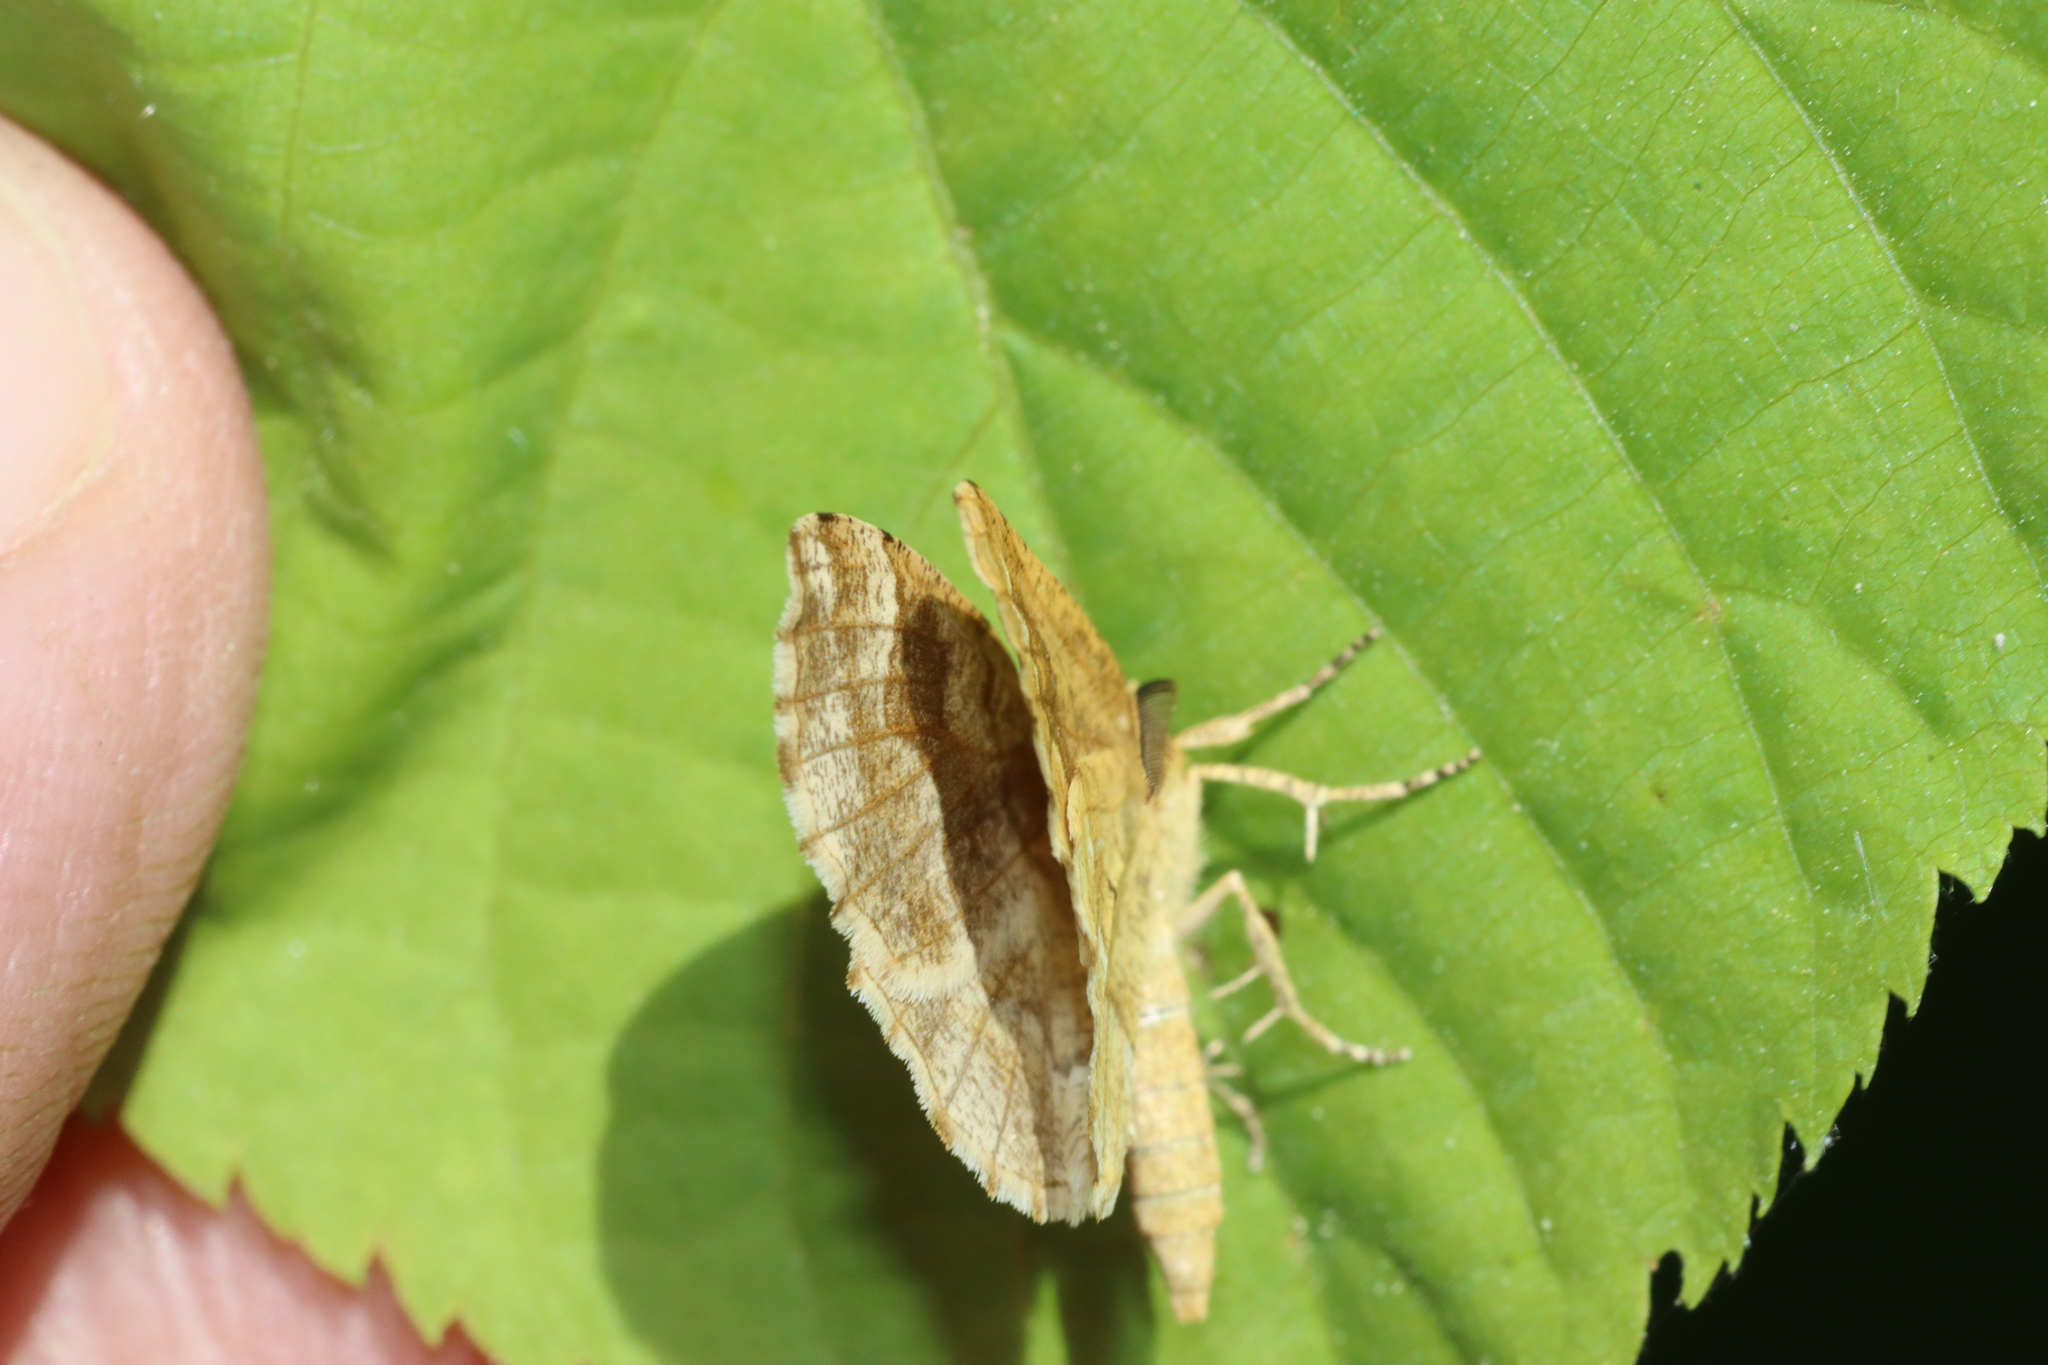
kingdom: Animalia
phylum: Arthropoda
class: Insecta
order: Lepidoptera
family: Geometridae
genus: Cepphis
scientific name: Cepphis advenaria
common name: Little thorn
